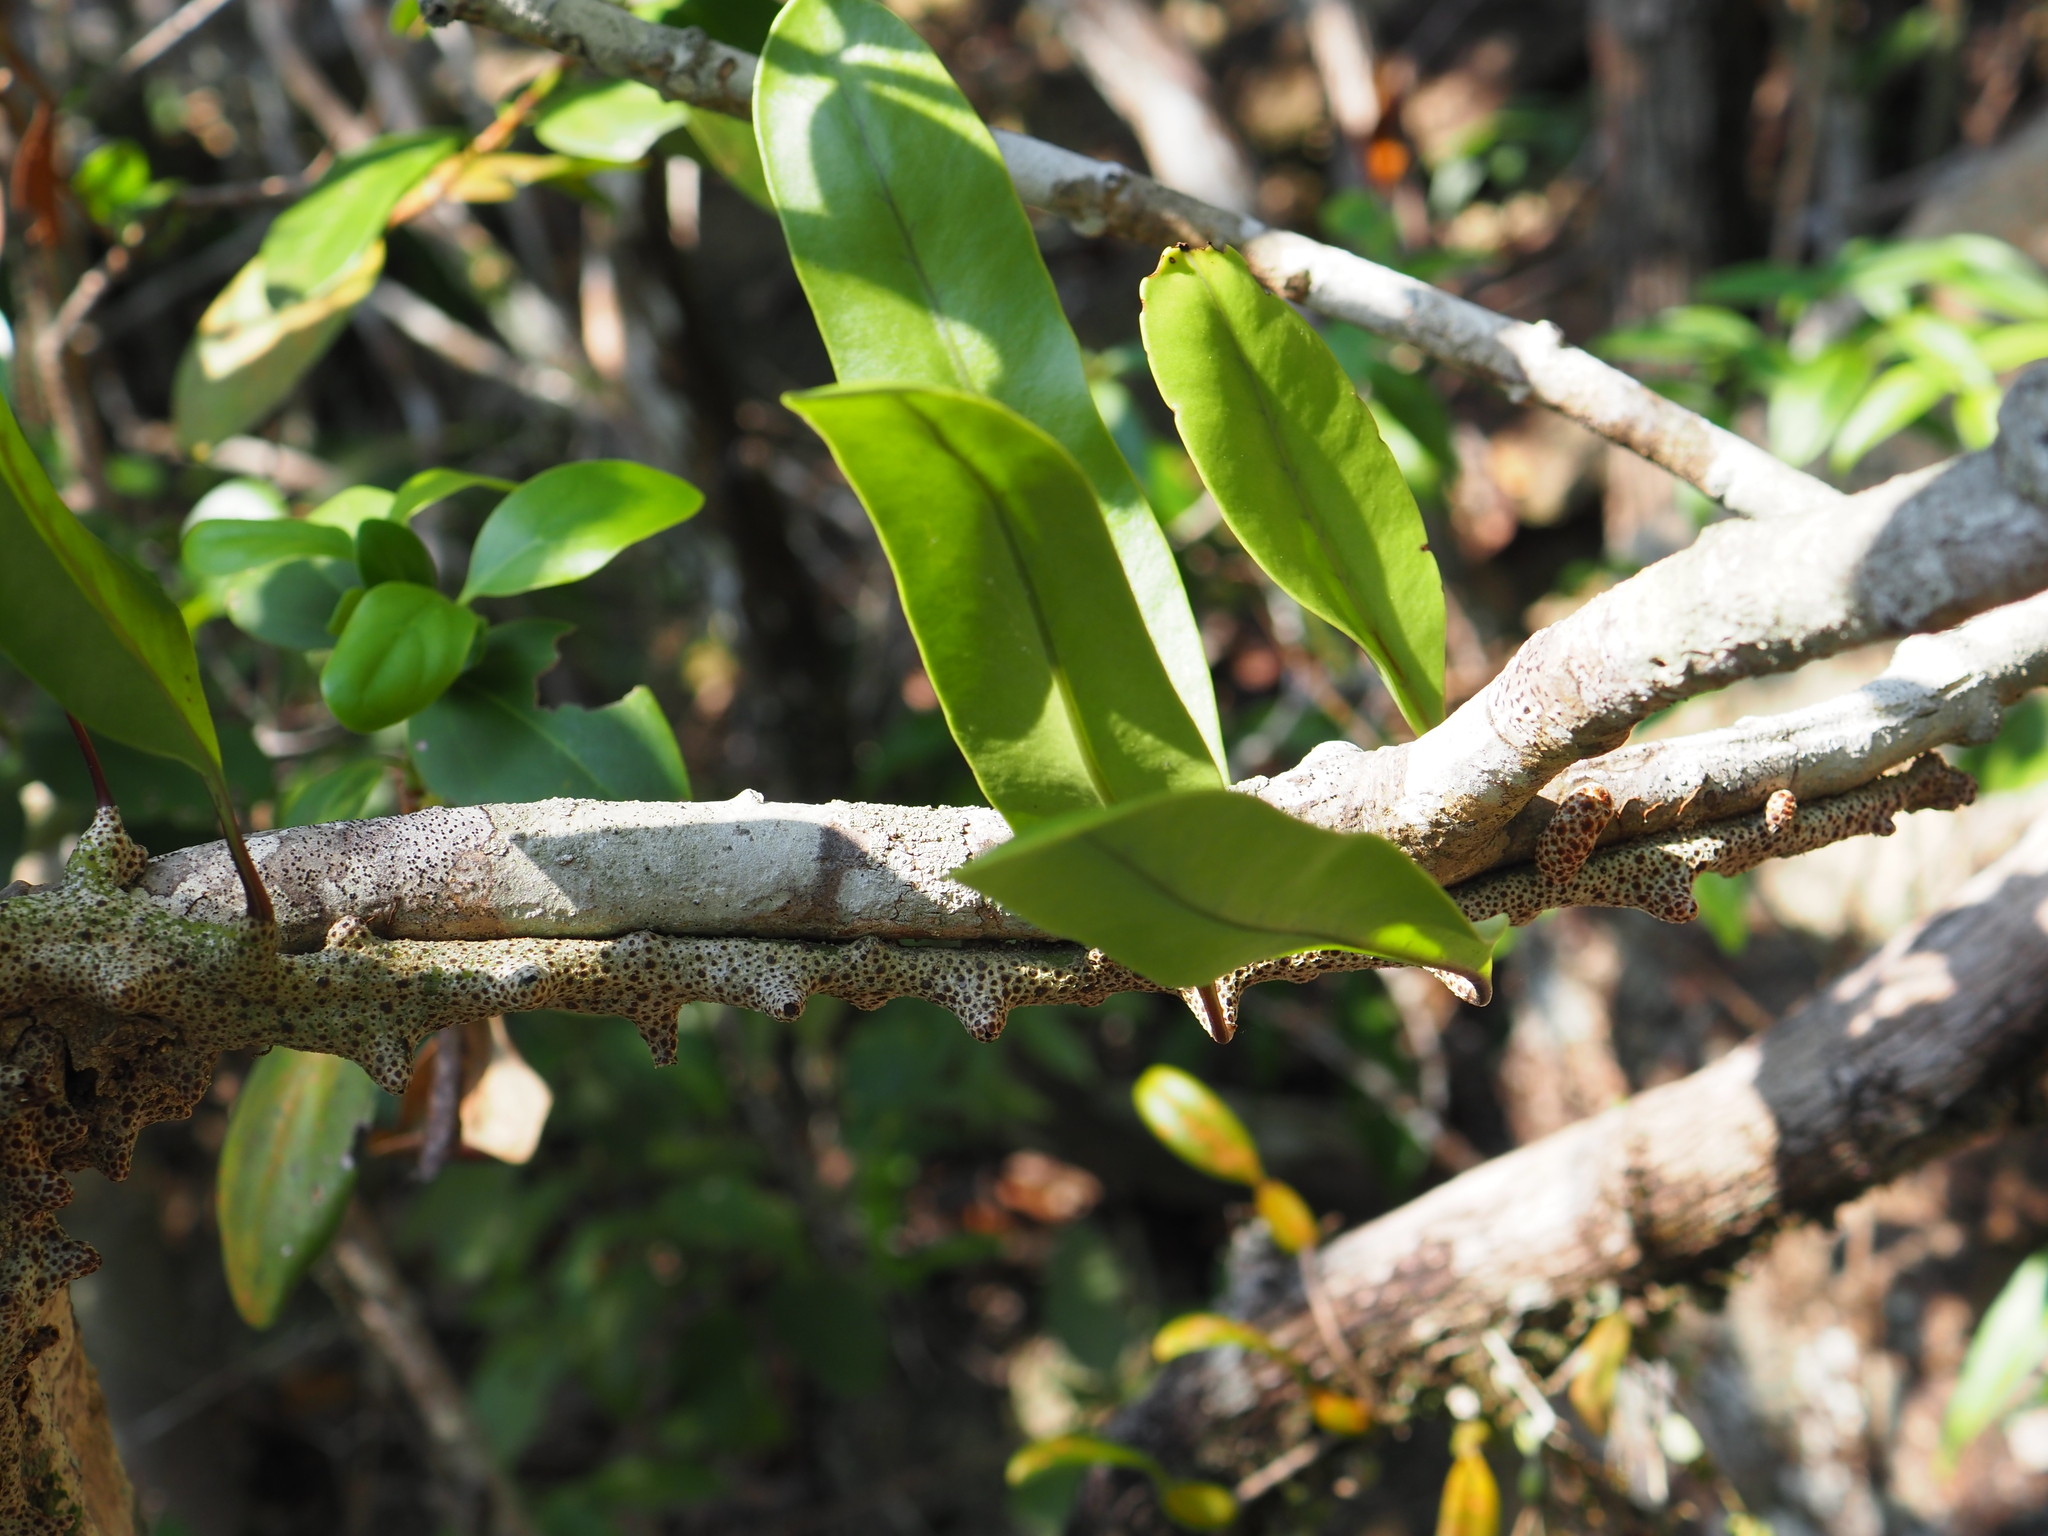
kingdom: Plantae
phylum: Tracheophyta
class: Polypodiopsida
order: Polypodiales
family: Polypodiaceae
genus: Lecanopteris
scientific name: Lecanopteris sinuosa
